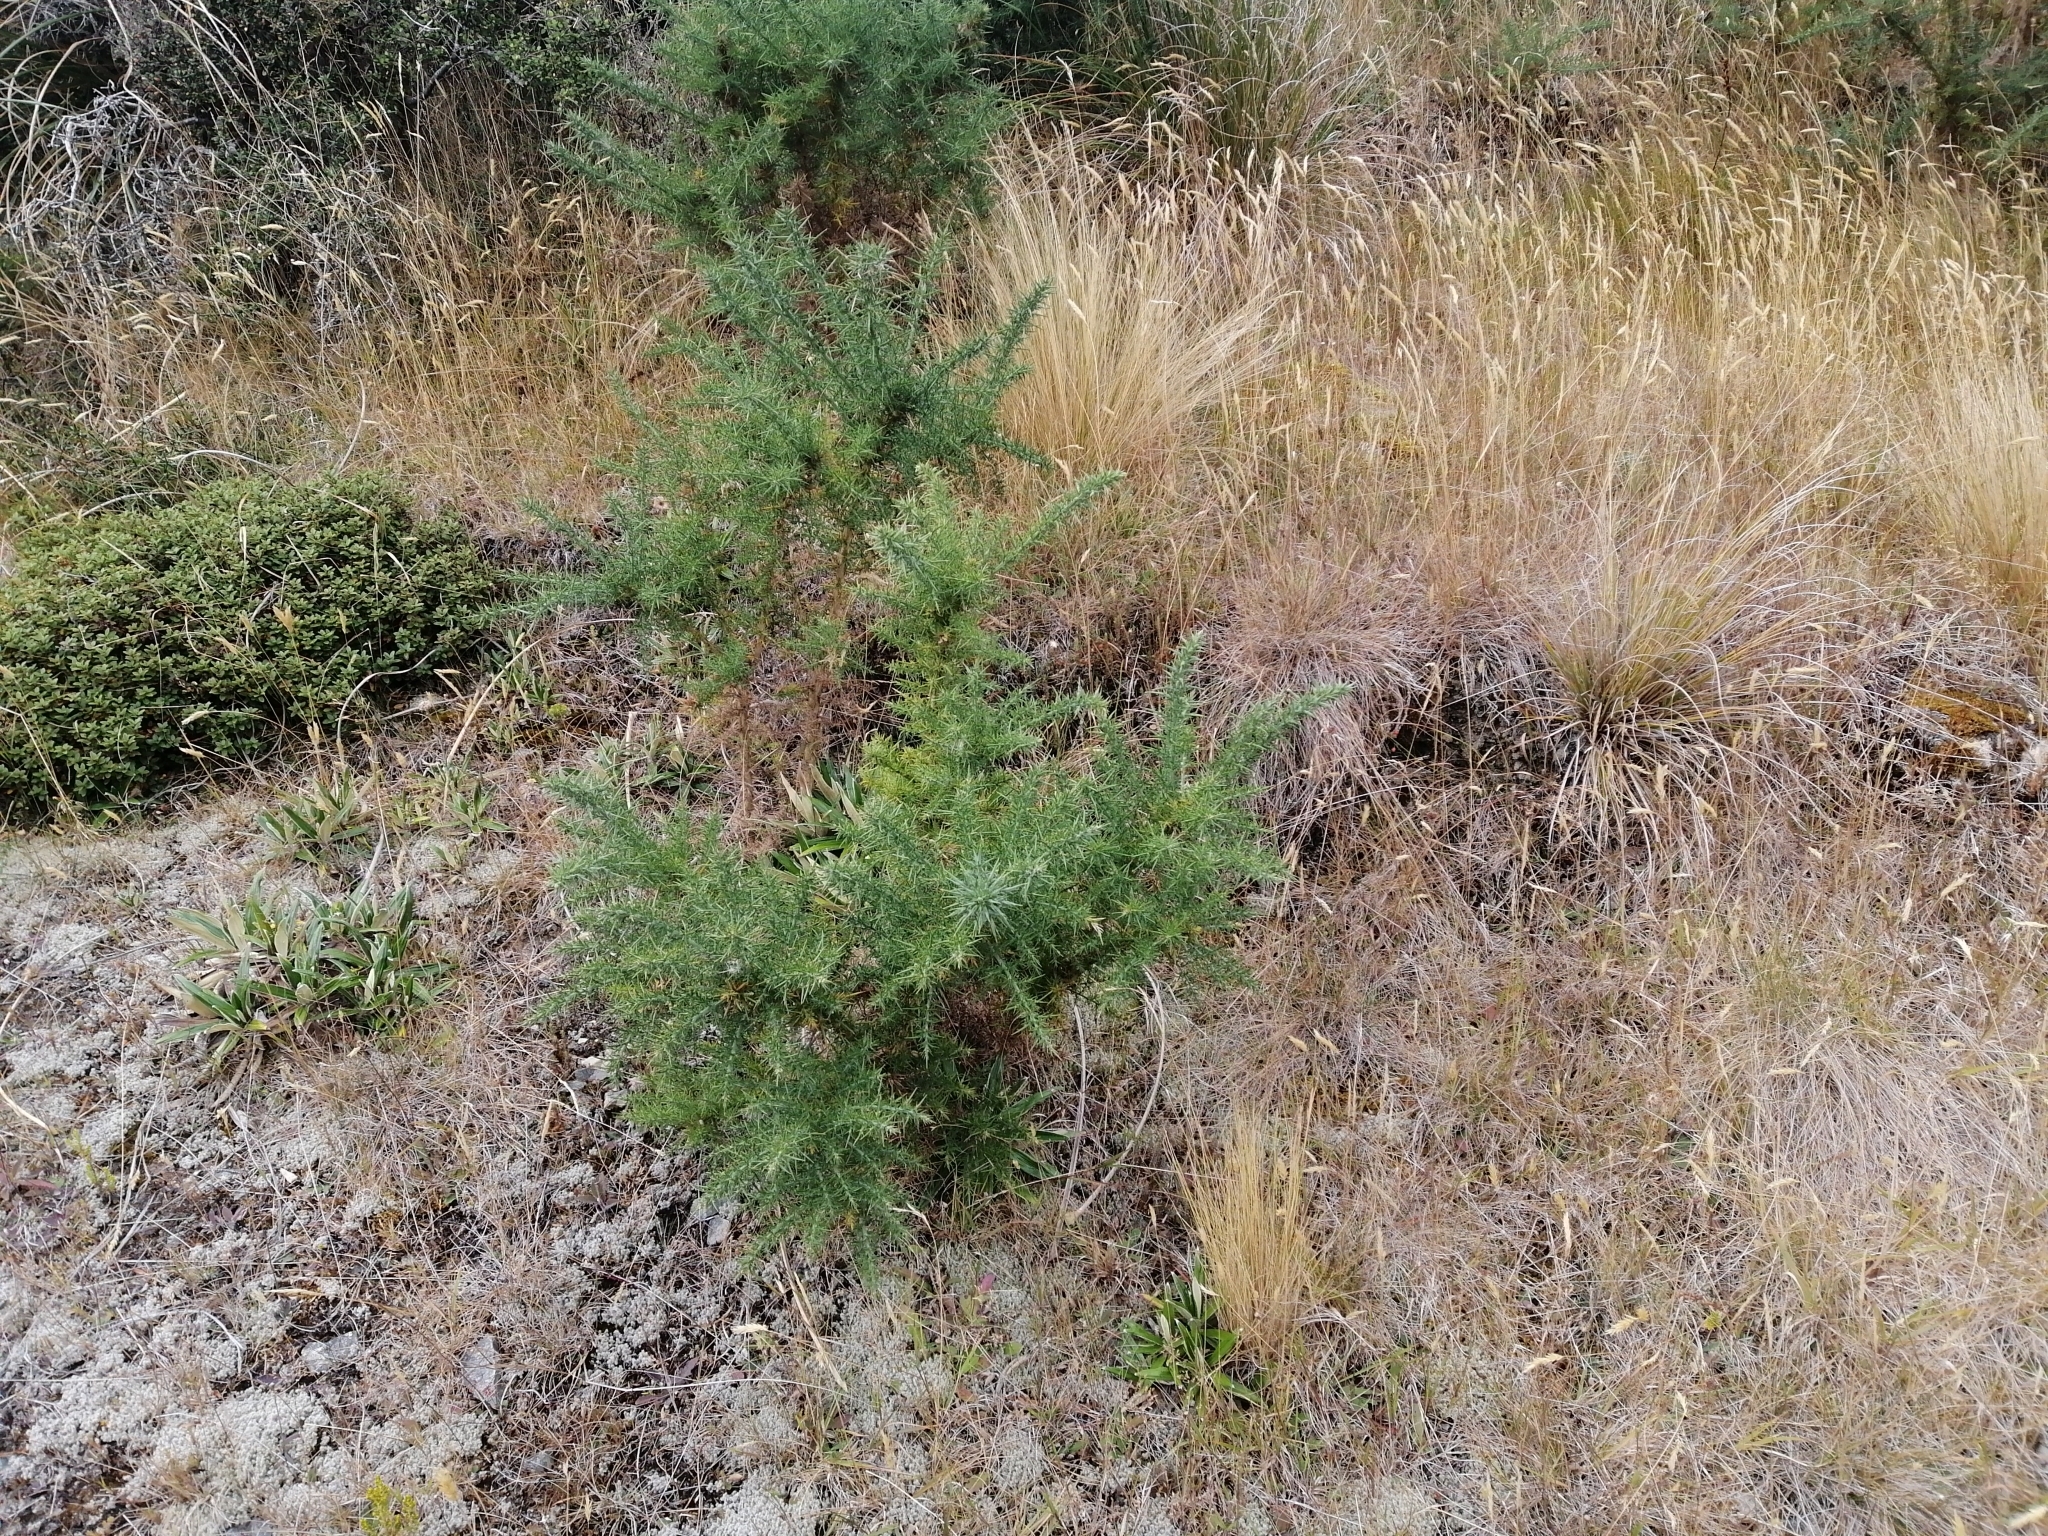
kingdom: Plantae
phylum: Tracheophyta
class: Magnoliopsida
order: Fabales
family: Fabaceae
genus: Ulex
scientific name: Ulex europaeus
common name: Common gorse
